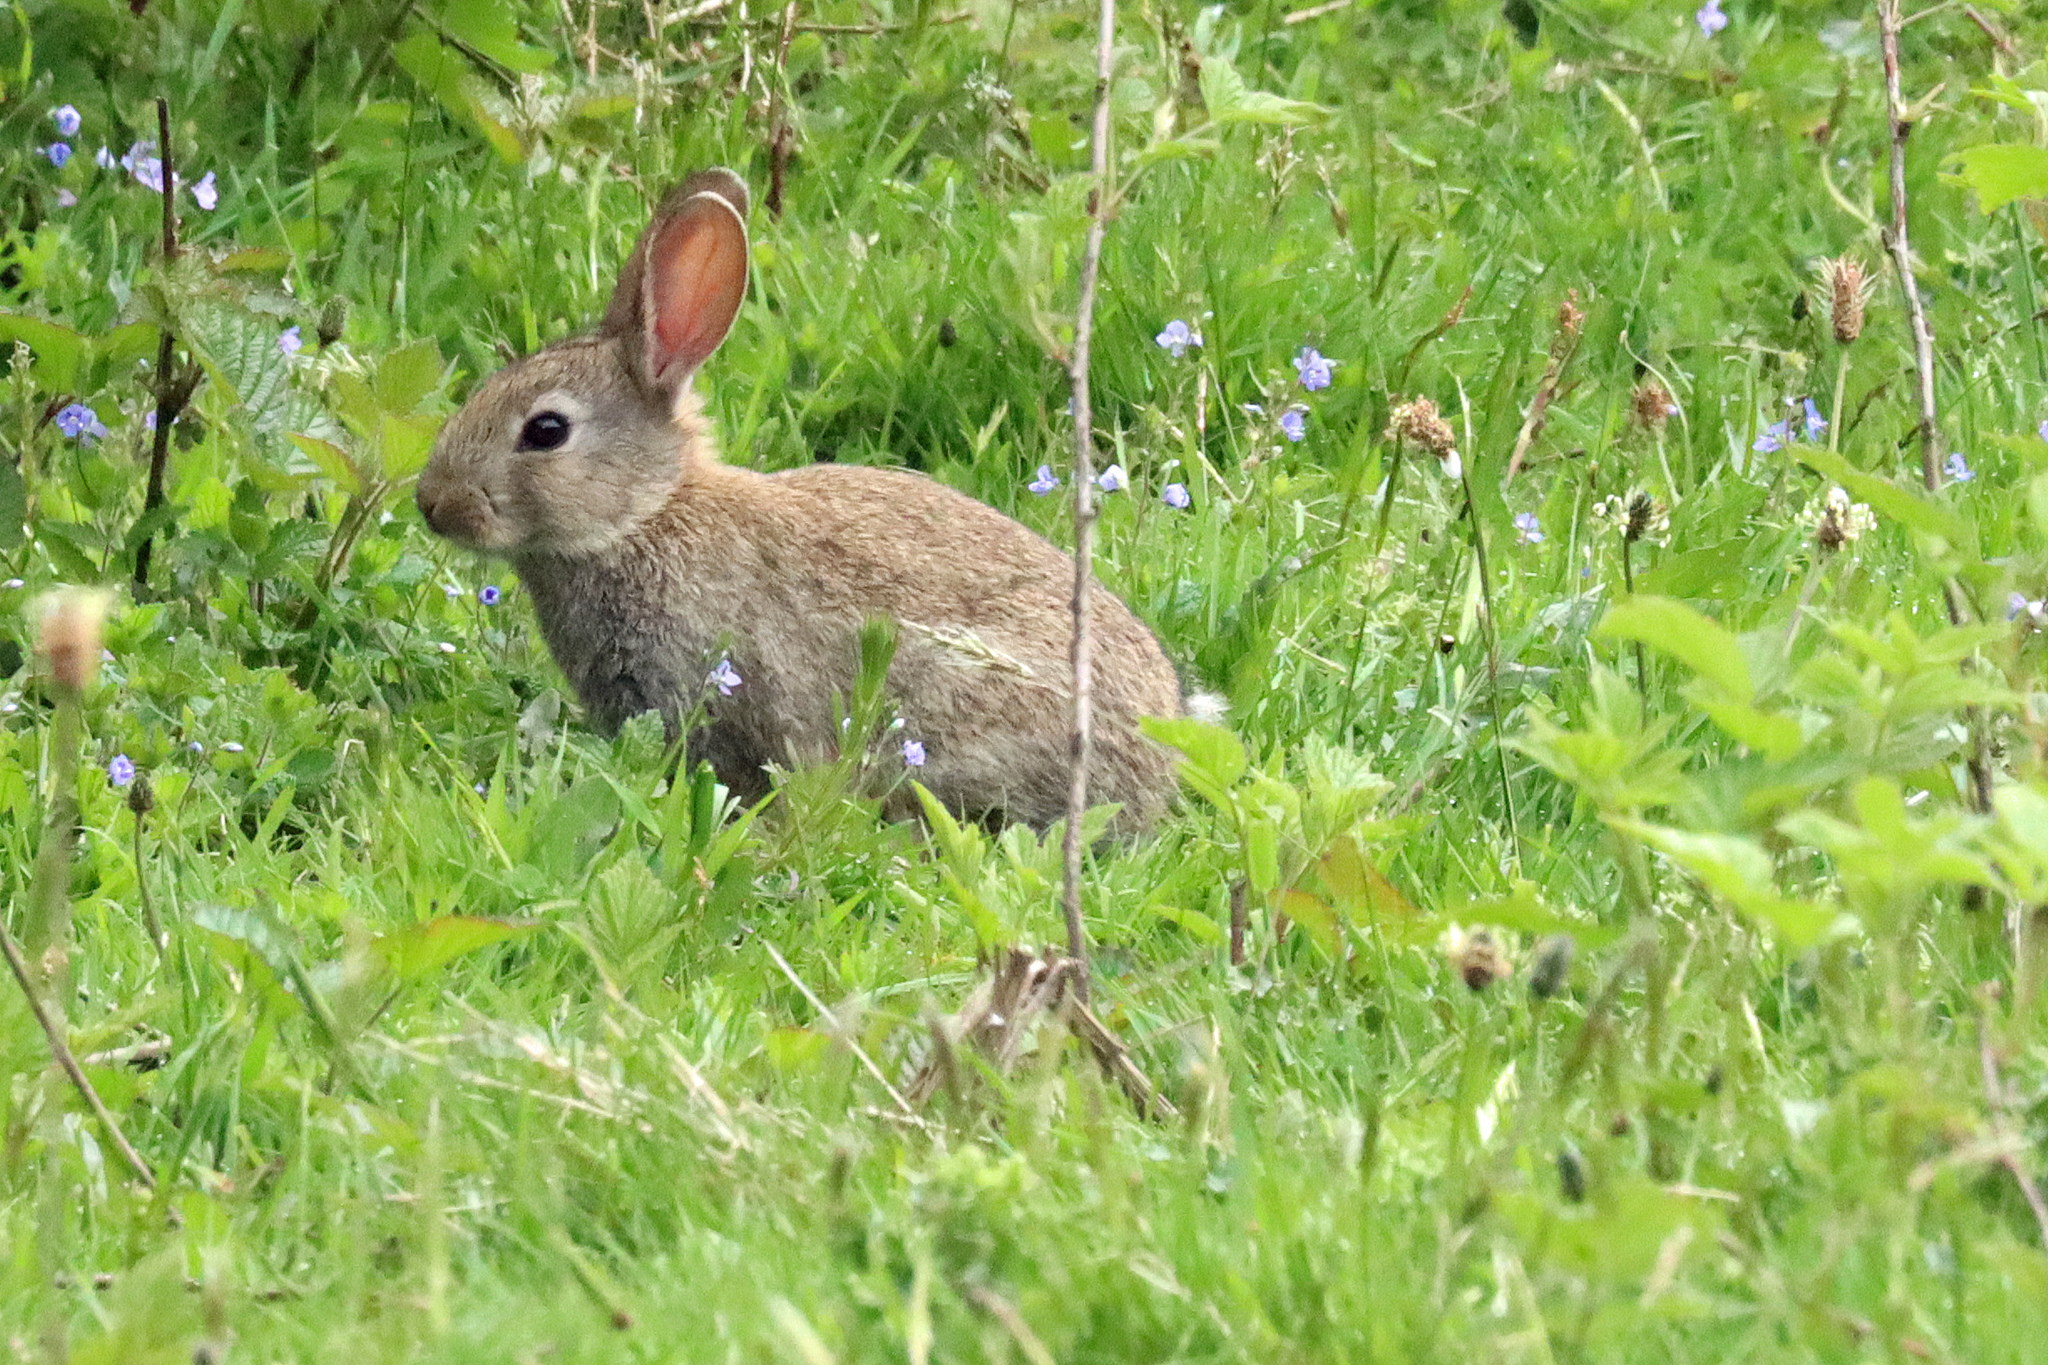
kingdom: Animalia
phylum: Chordata
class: Mammalia
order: Lagomorpha
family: Leporidae
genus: Oryctolagus
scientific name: Oryctolagus cuniculus
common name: European rabbit
